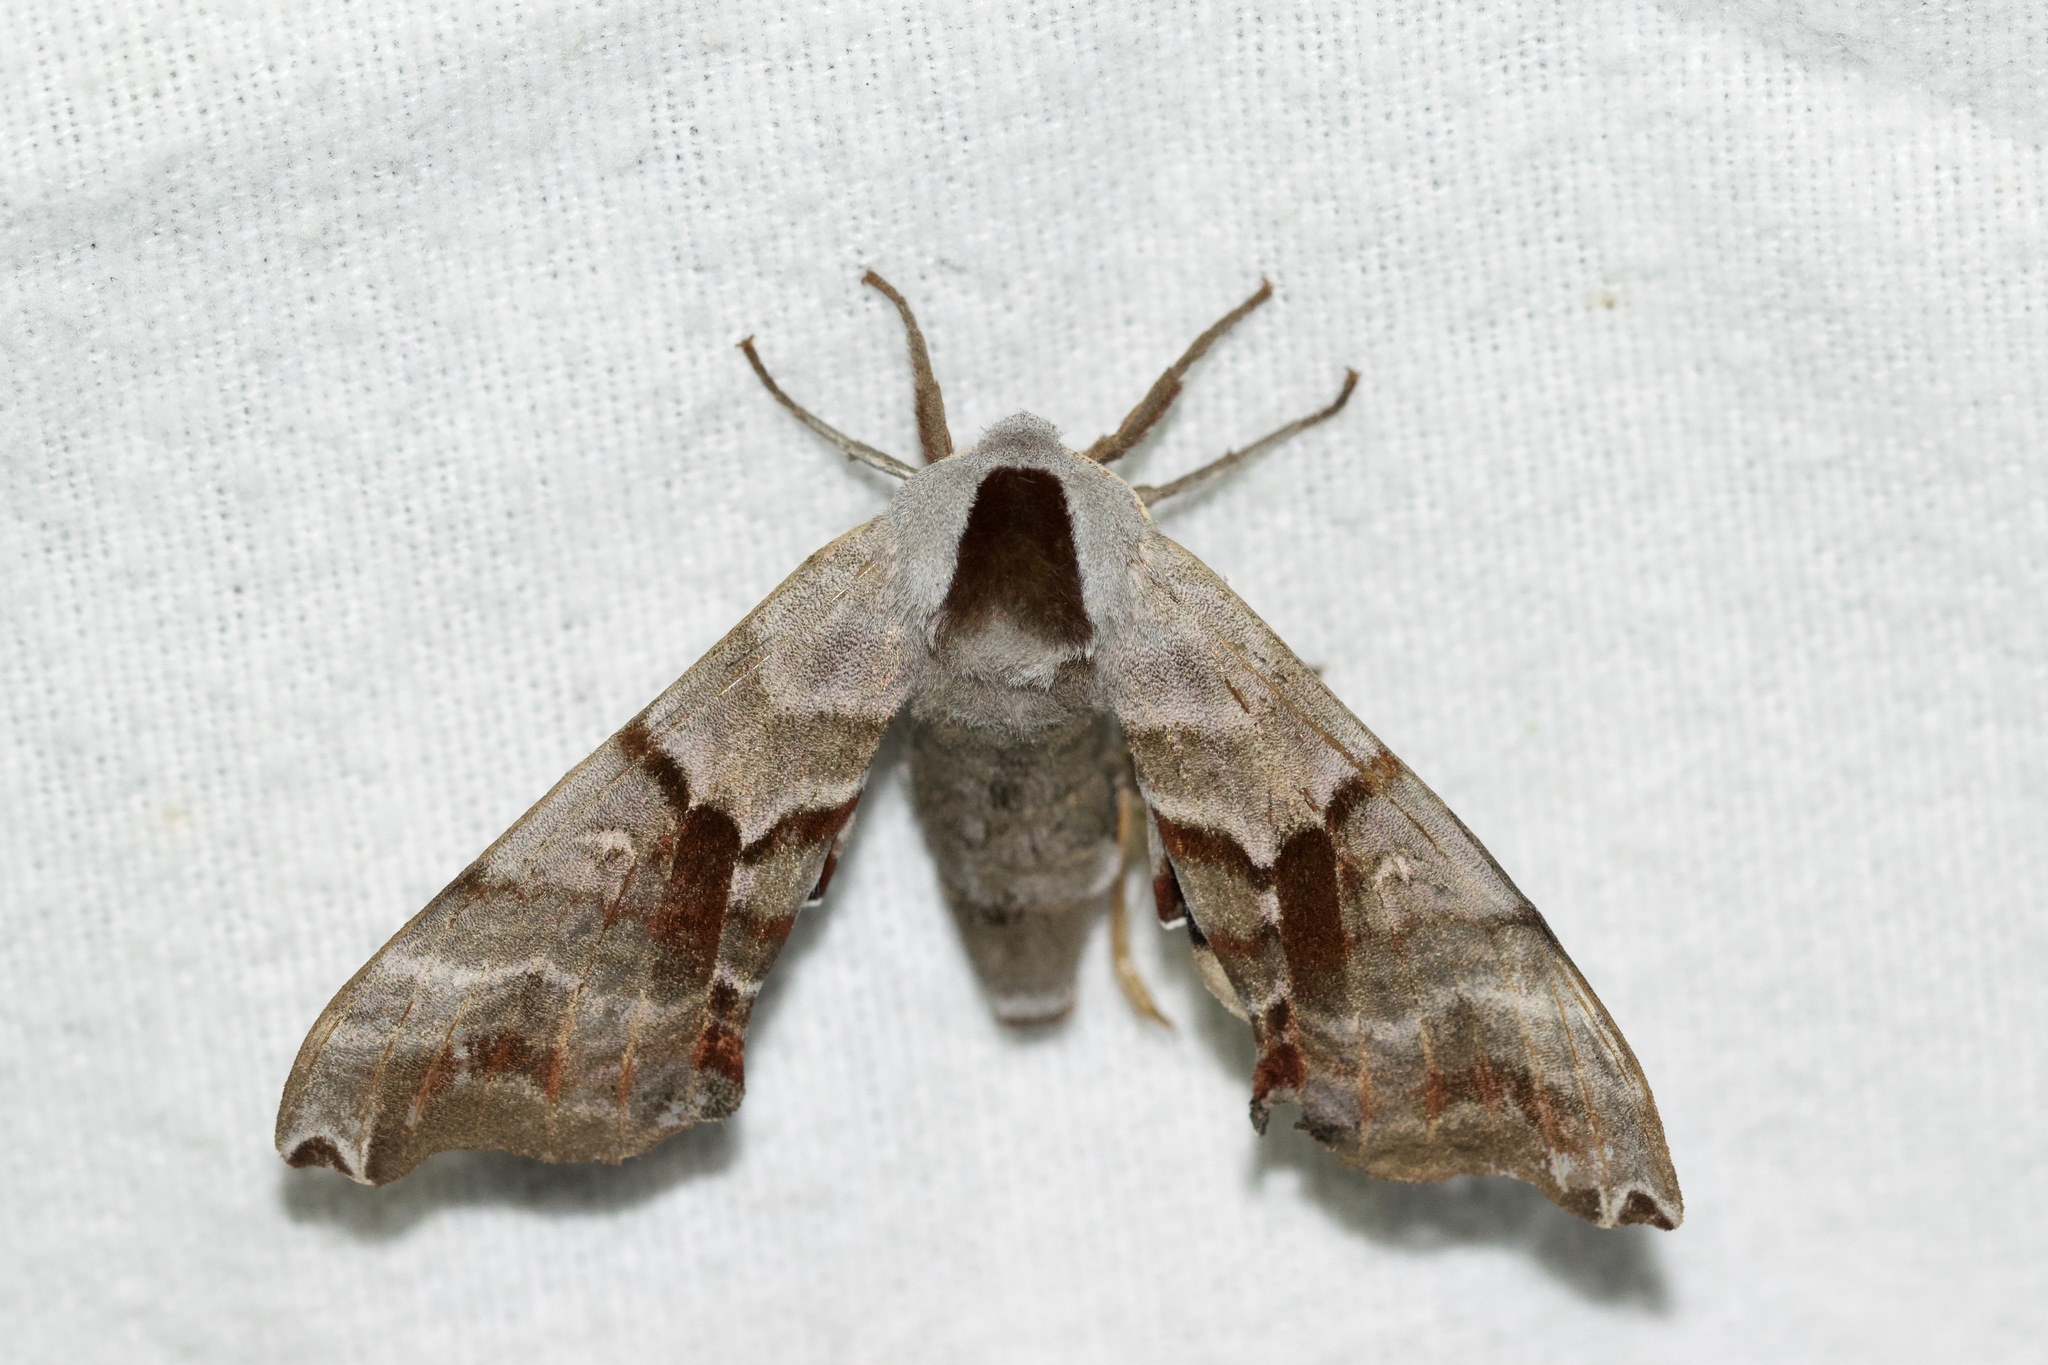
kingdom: Animalia
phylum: Arthropoda
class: Insecta
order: Lepidoptera
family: Sphingidae
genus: Smerinthus
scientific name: Smerinthus jamaicensis
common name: Twin spotted sphinx
